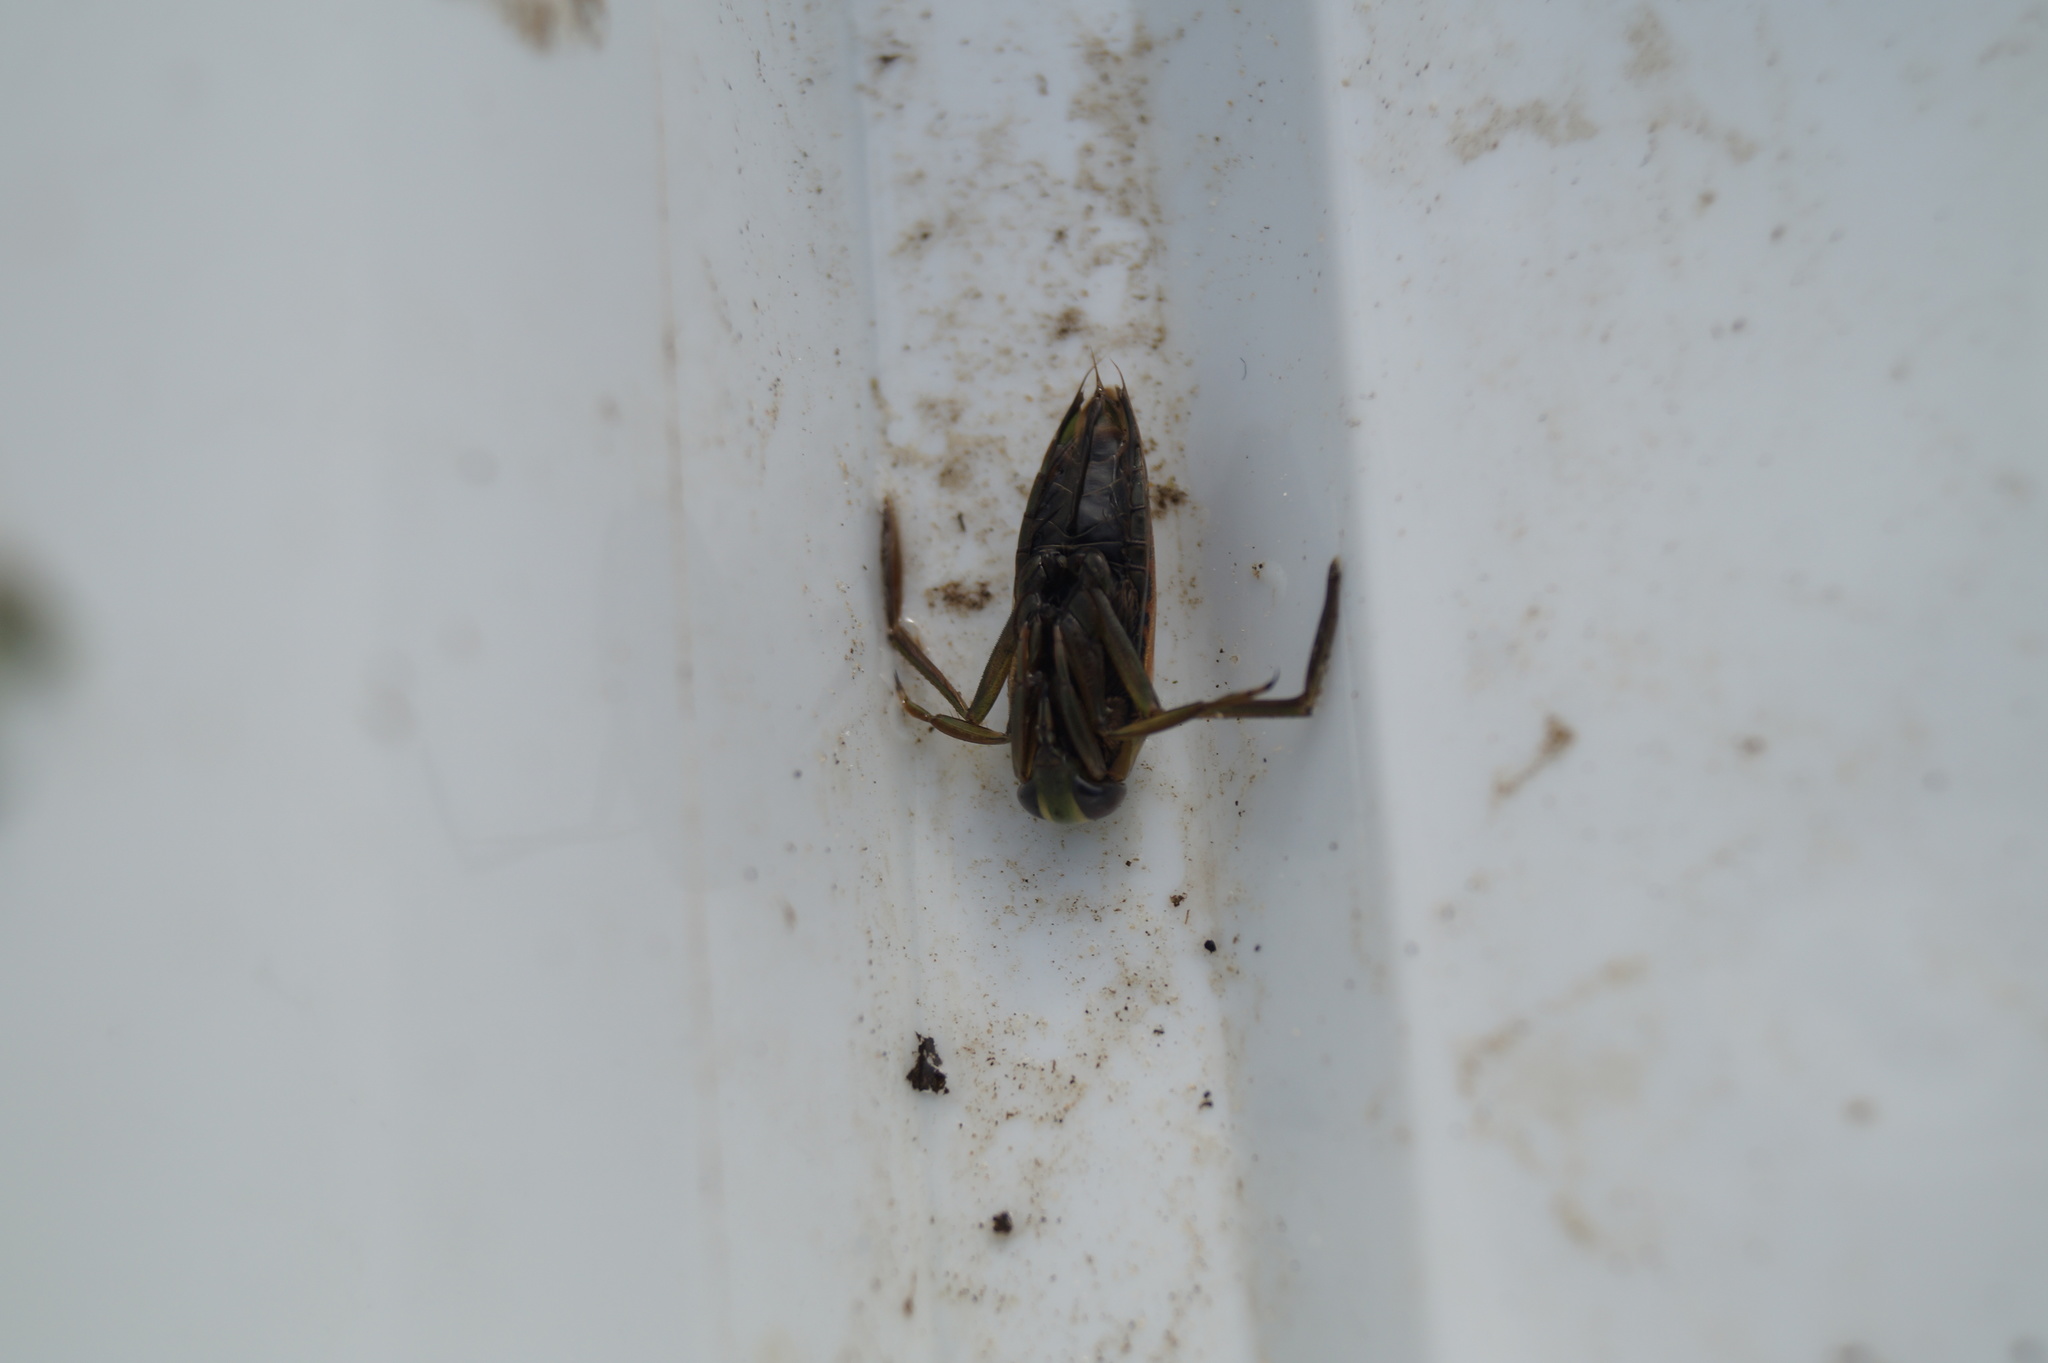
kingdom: Animalia
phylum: Arthropoda
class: Insecta
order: Hemiptera
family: Notonectidae
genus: Notonecta
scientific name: Notonecta glauca
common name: Common water-boatman
